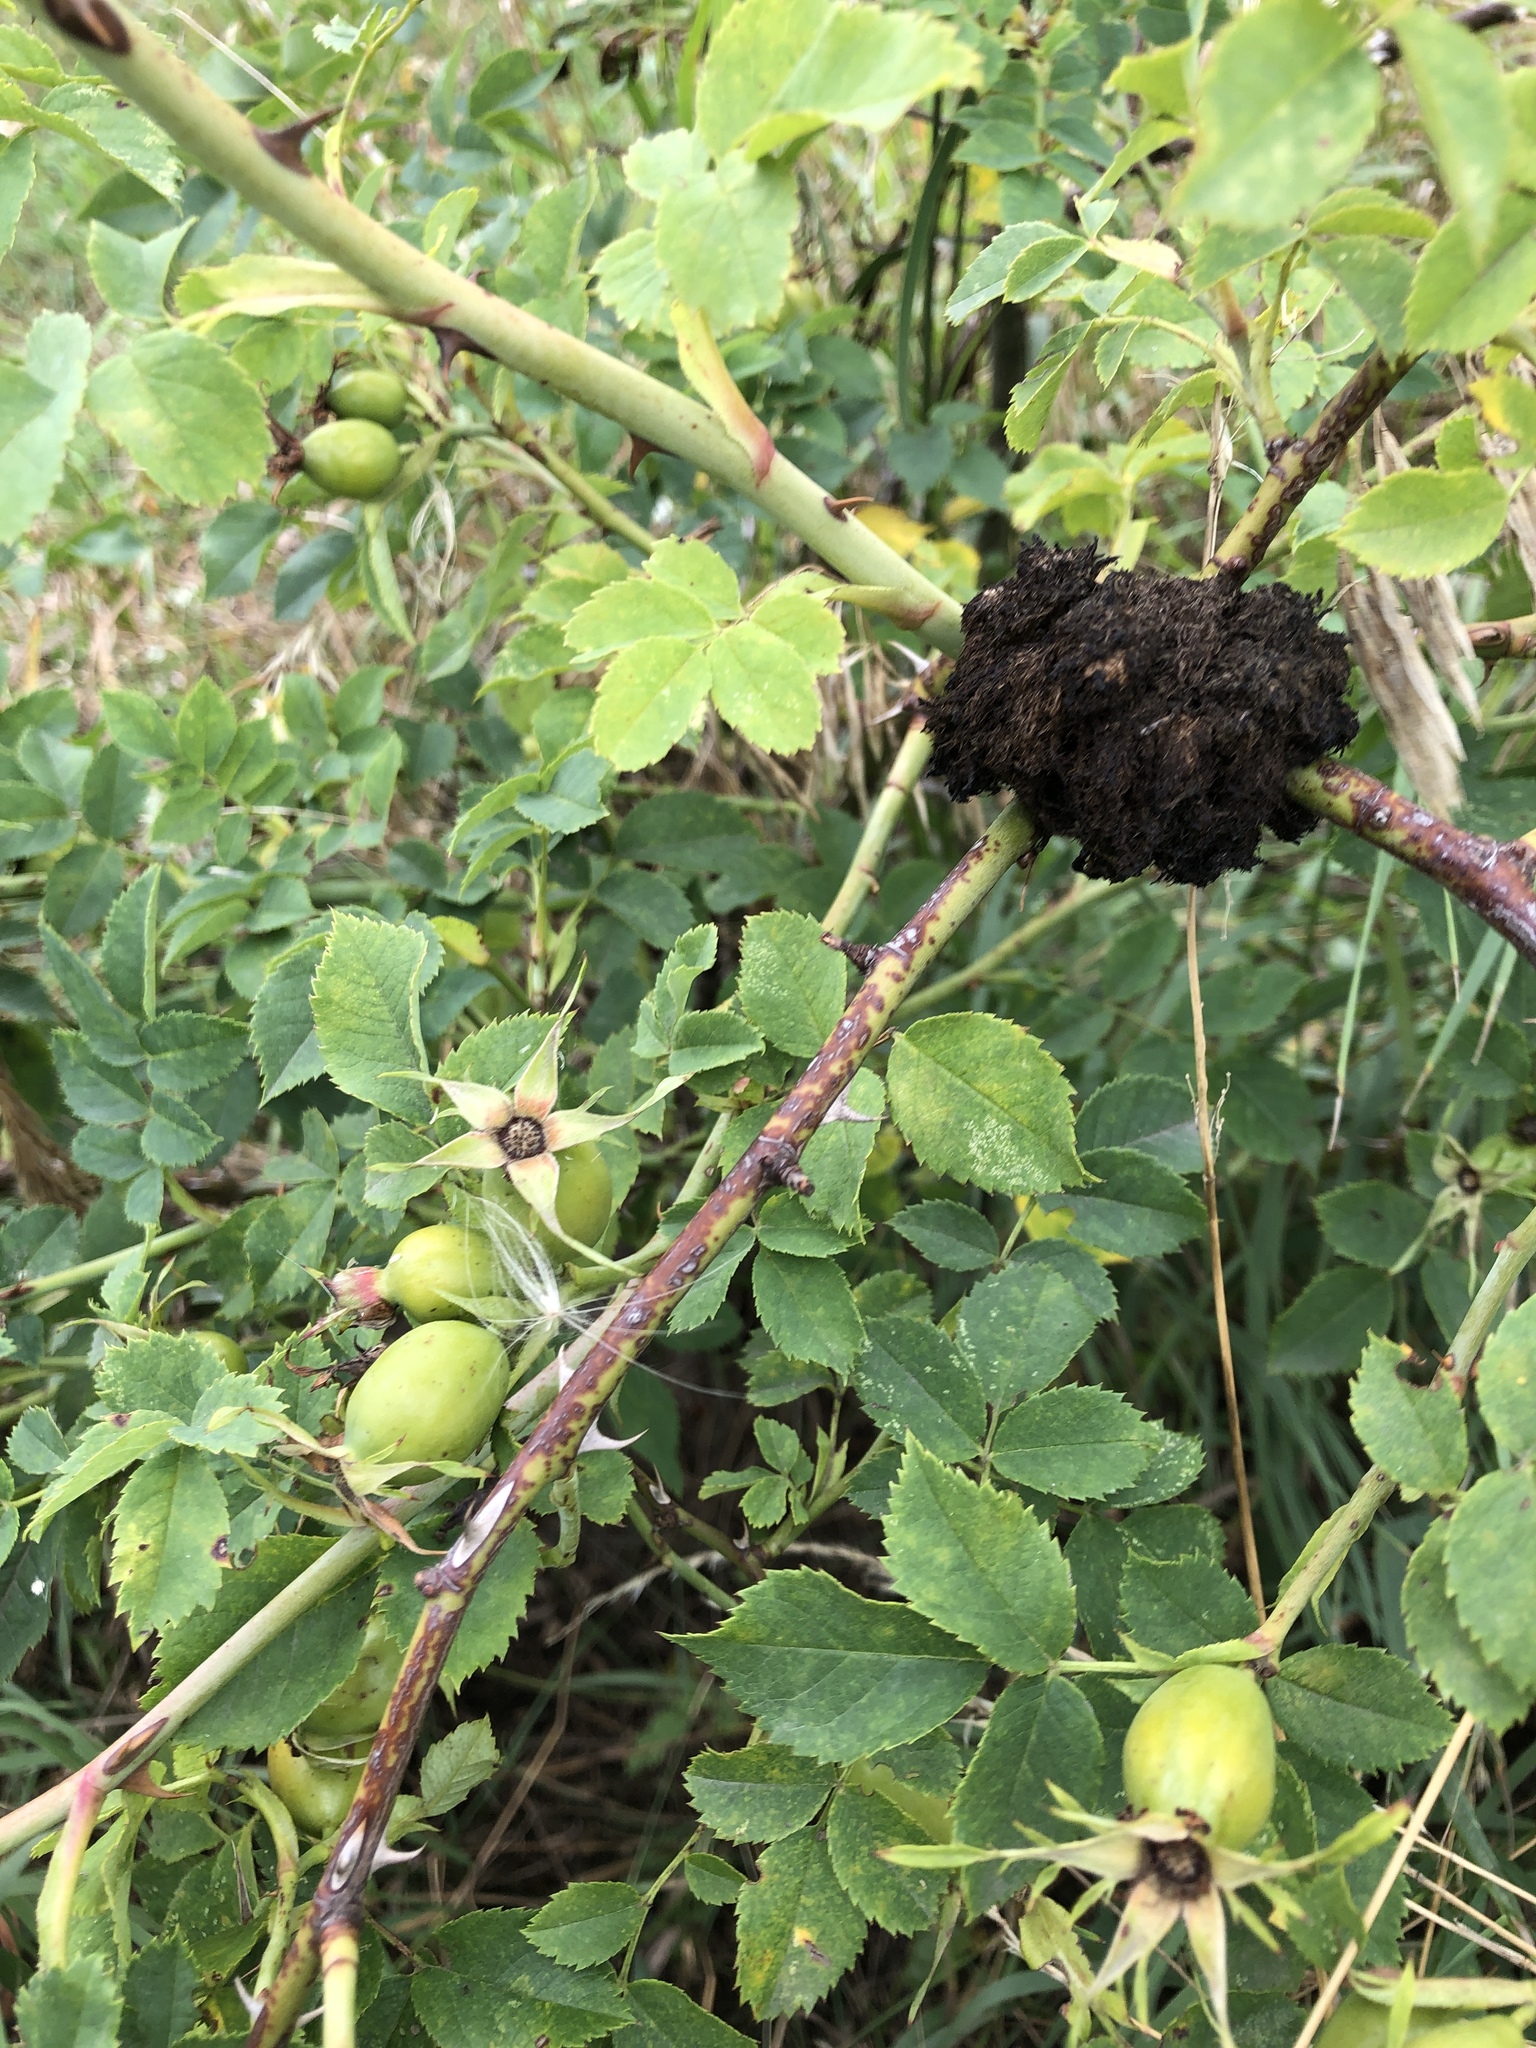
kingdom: Animalia
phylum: Arthropoda
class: Insecta
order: Hymenoptera
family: Cynipidae
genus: Diplolepis
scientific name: Diplolepis rosae
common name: Bedeguar gall
